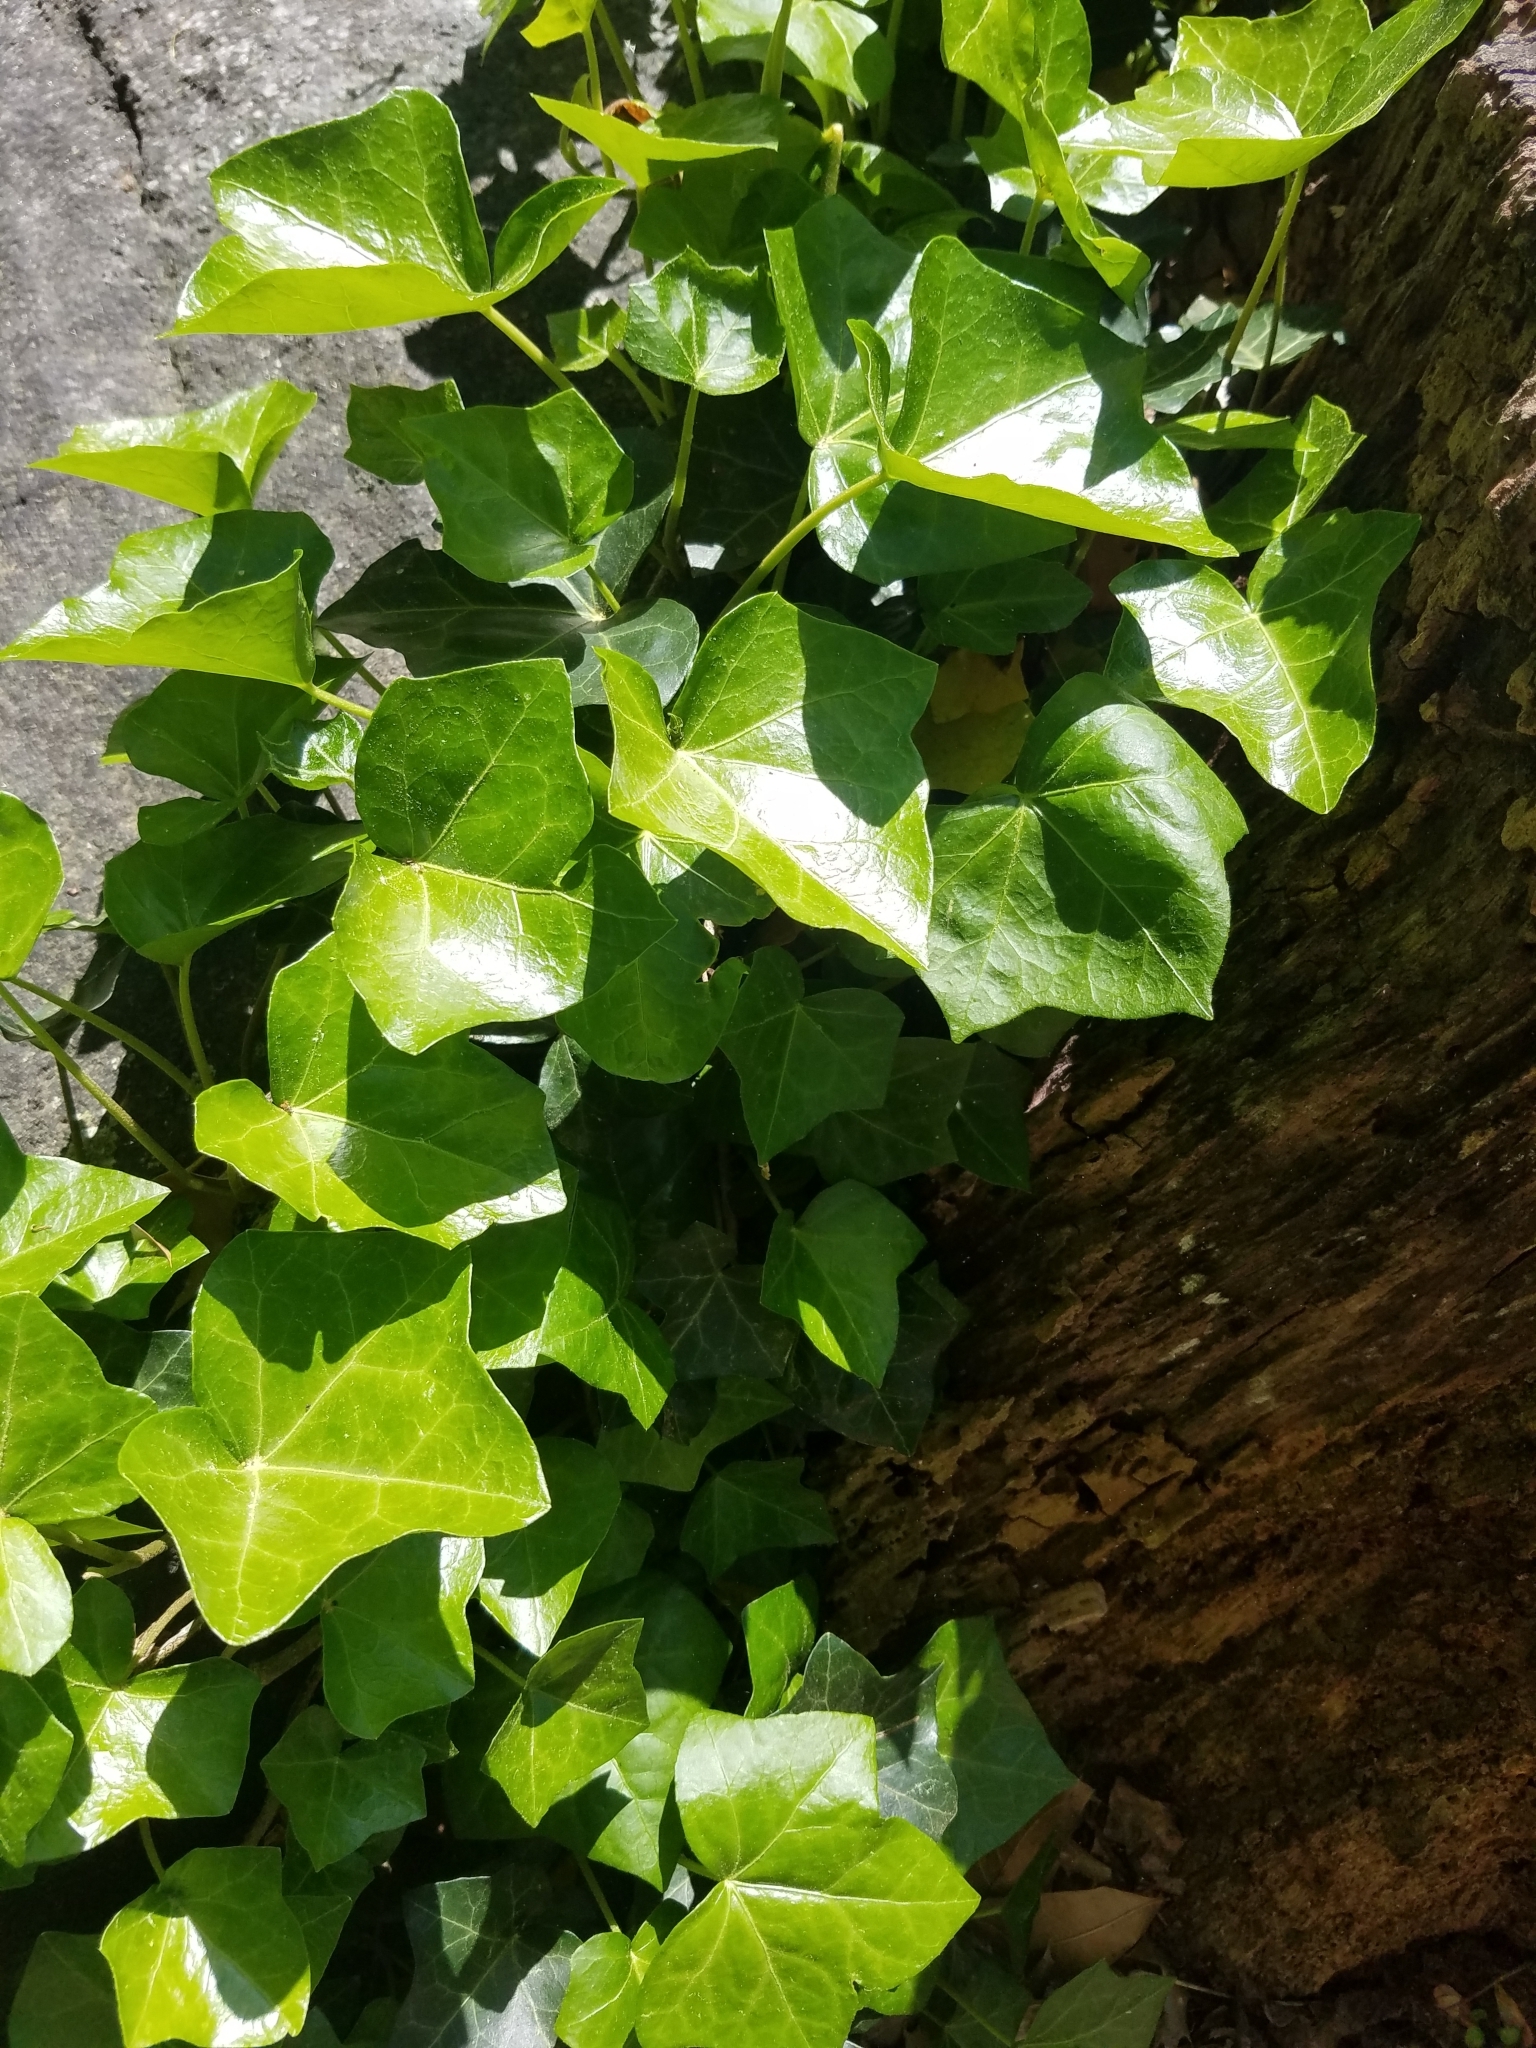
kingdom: Plantae
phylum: Tracheophyta
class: Magnoliopsida
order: Apiales
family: Araliaceae
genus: Hedera
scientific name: Hedera helix
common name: Ivy
